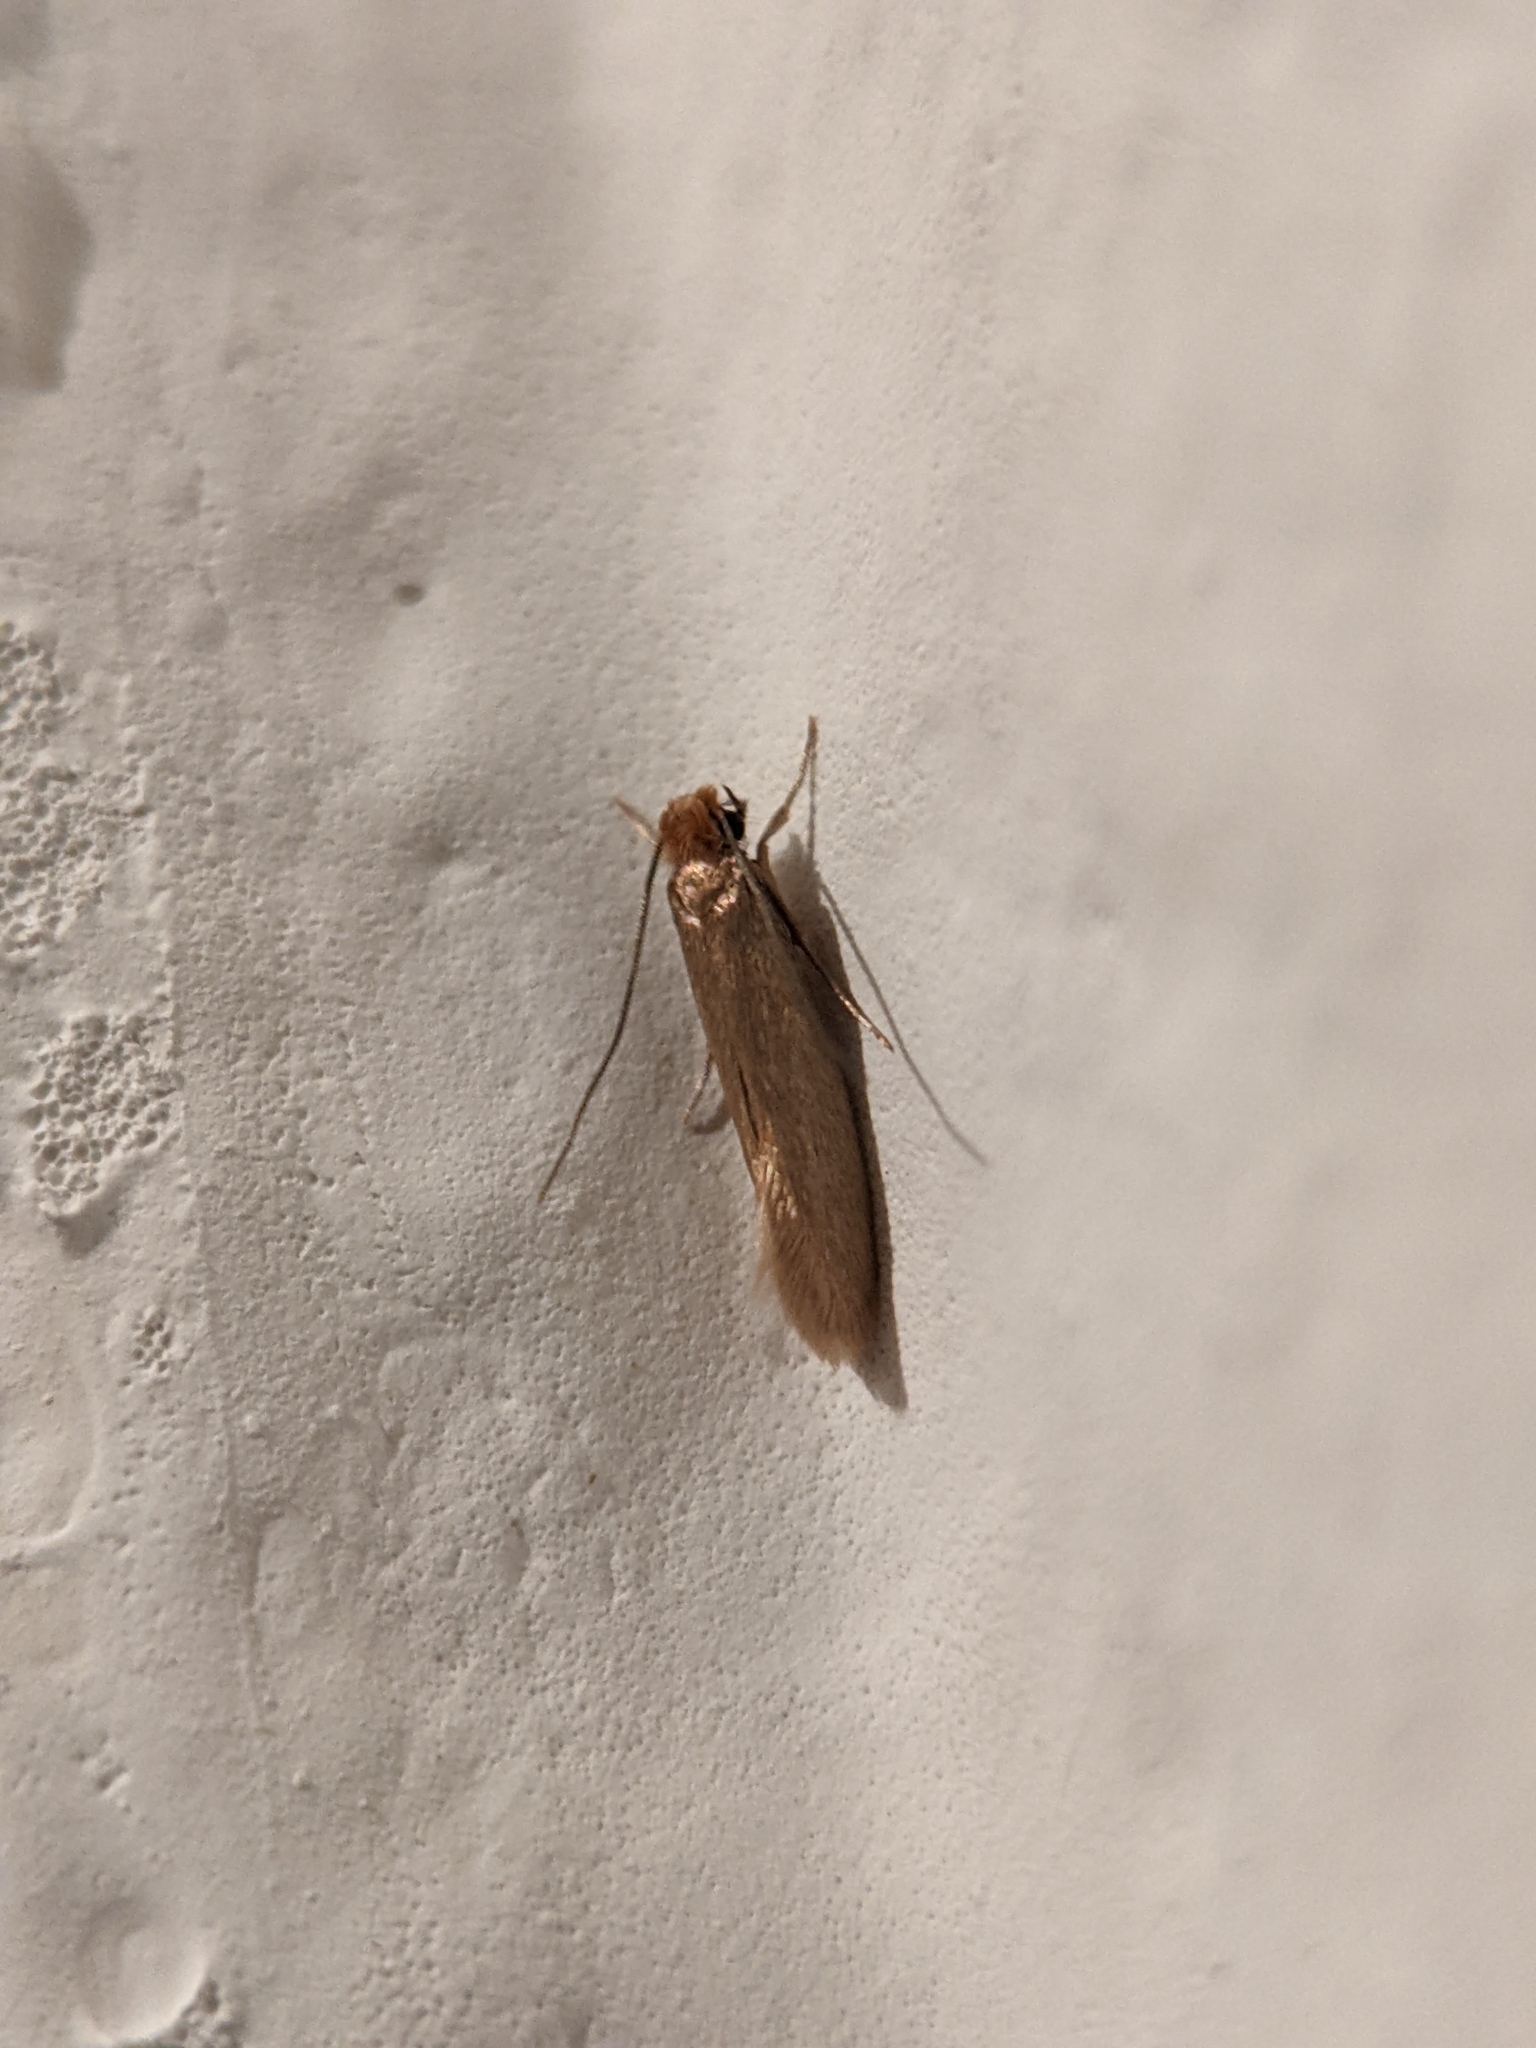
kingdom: Animalia
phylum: Arthropoda
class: Insecta
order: Lepidoptera
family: Tineidae
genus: Tineola
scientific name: Tineola bisselliella
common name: Webbing clothes moth
